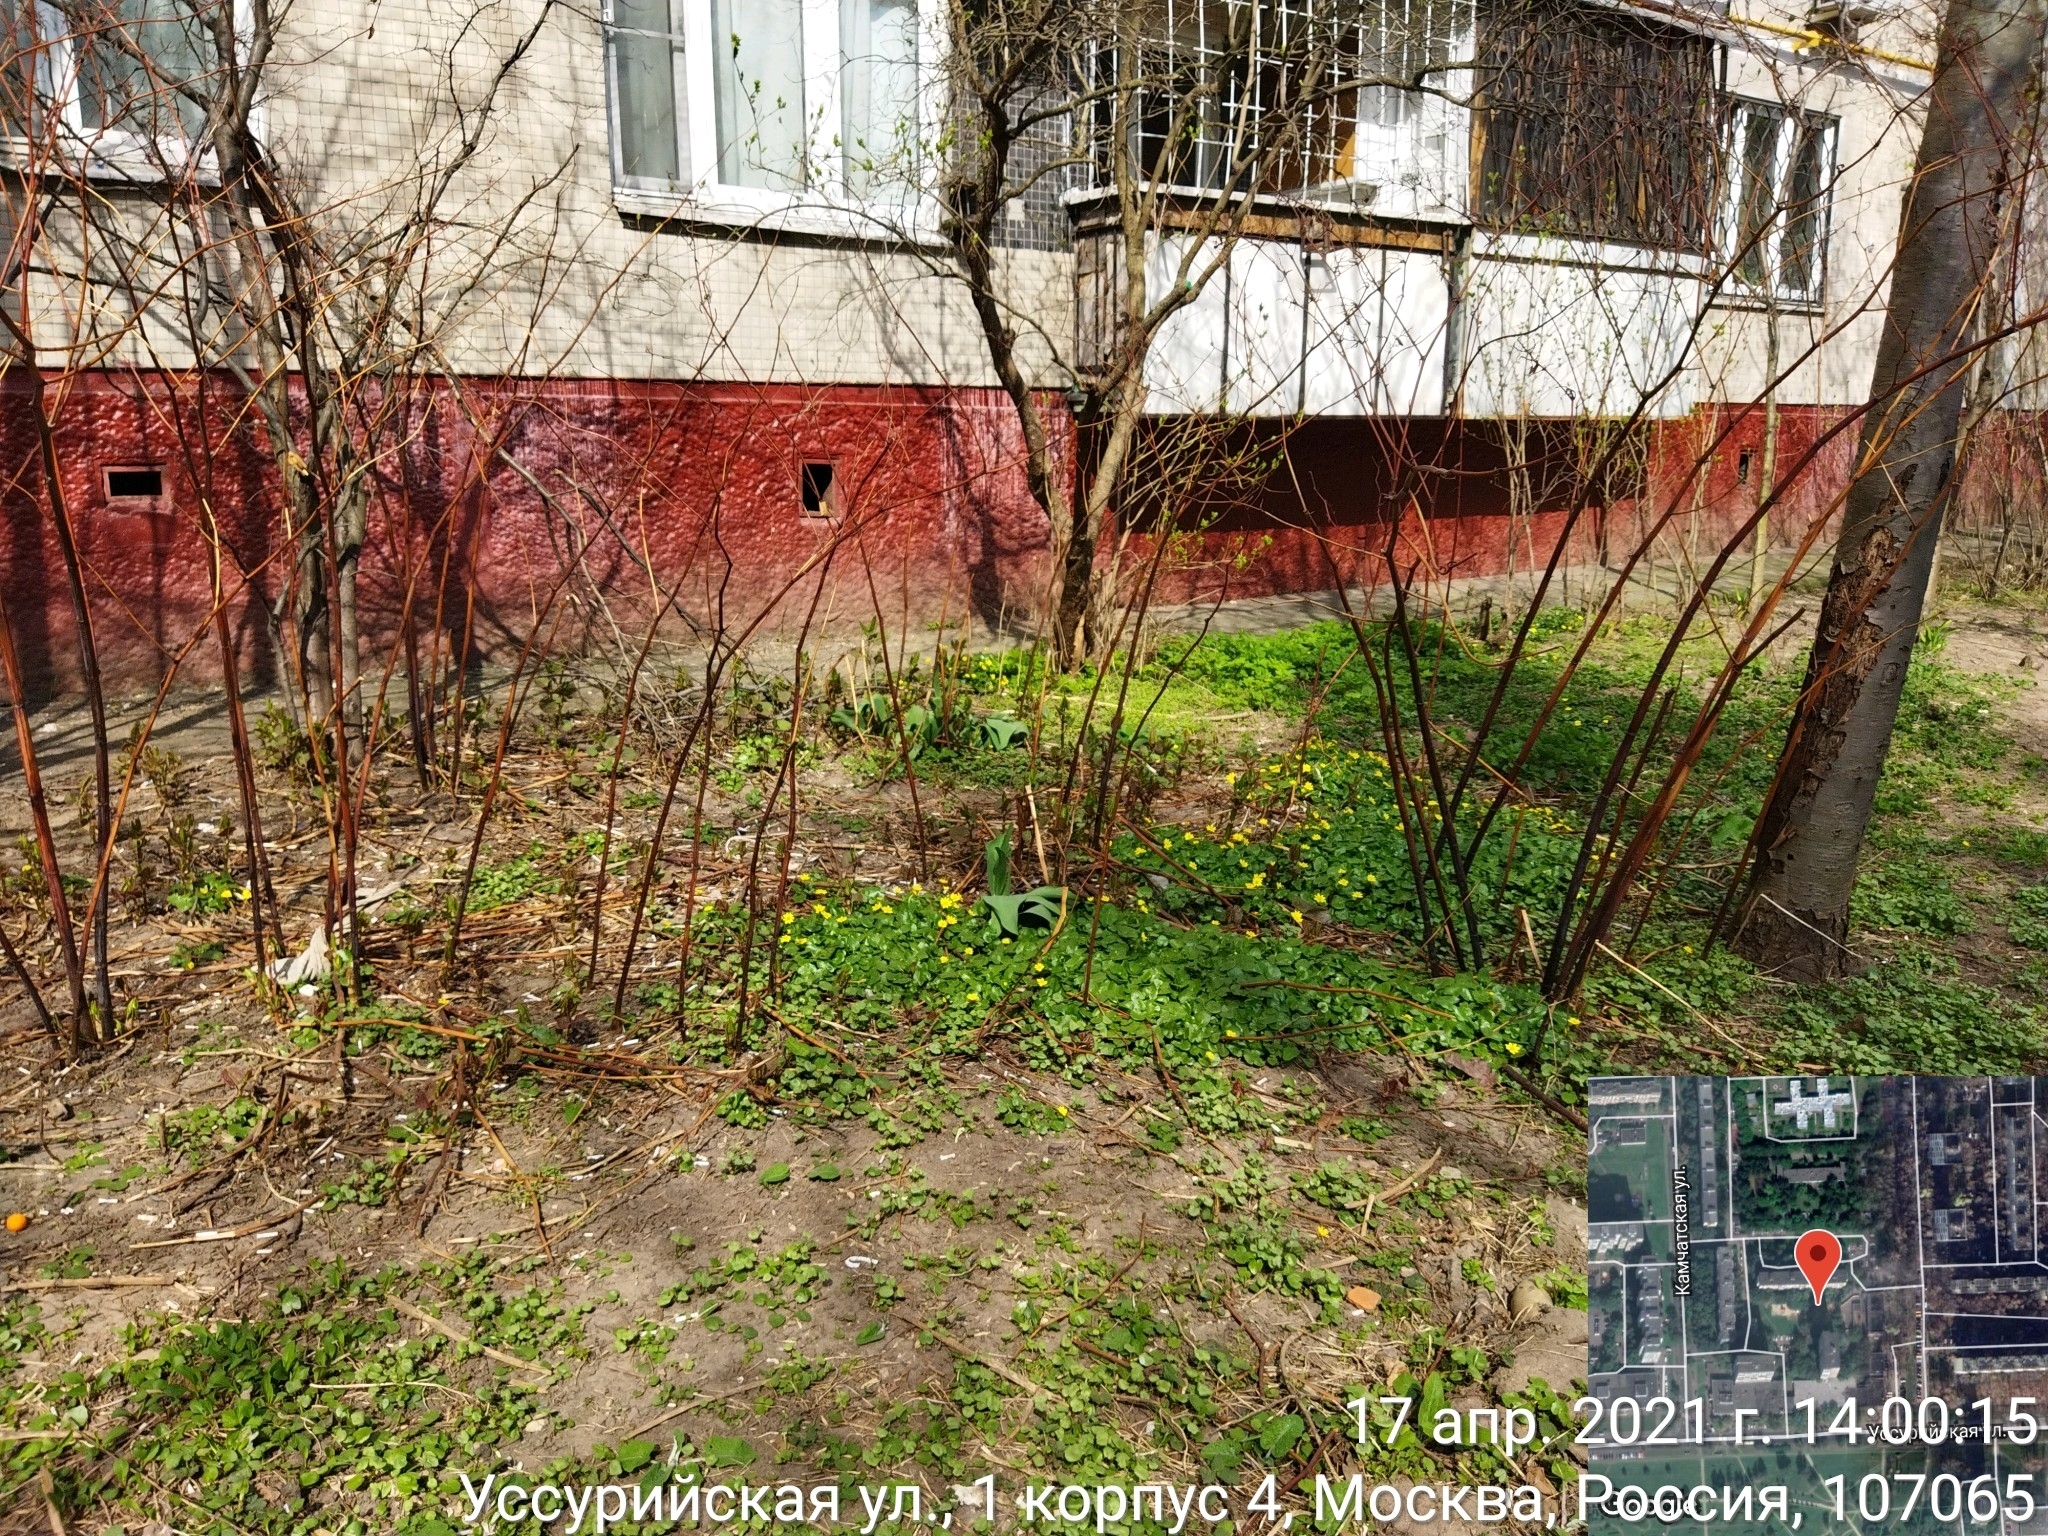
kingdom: Plantae
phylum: Tracheophyta
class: Magnoliopsida
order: Ranunculales
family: Ranunculaceae
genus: Ficaria
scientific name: Ficaria verna
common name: Lesser celandine
